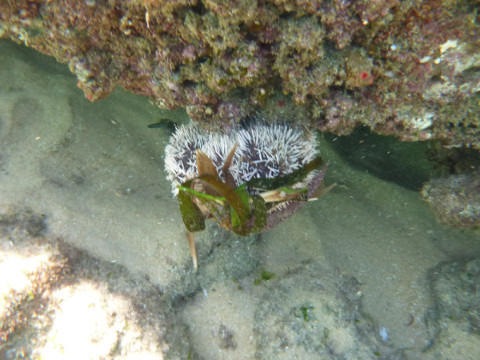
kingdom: Animalia
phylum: Echinodermata
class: Echinoidea
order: Camarodonta
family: Toxopneustidae
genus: Tripneustes
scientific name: Tripneustes gratilla
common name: Bischofsmützenseeigel
